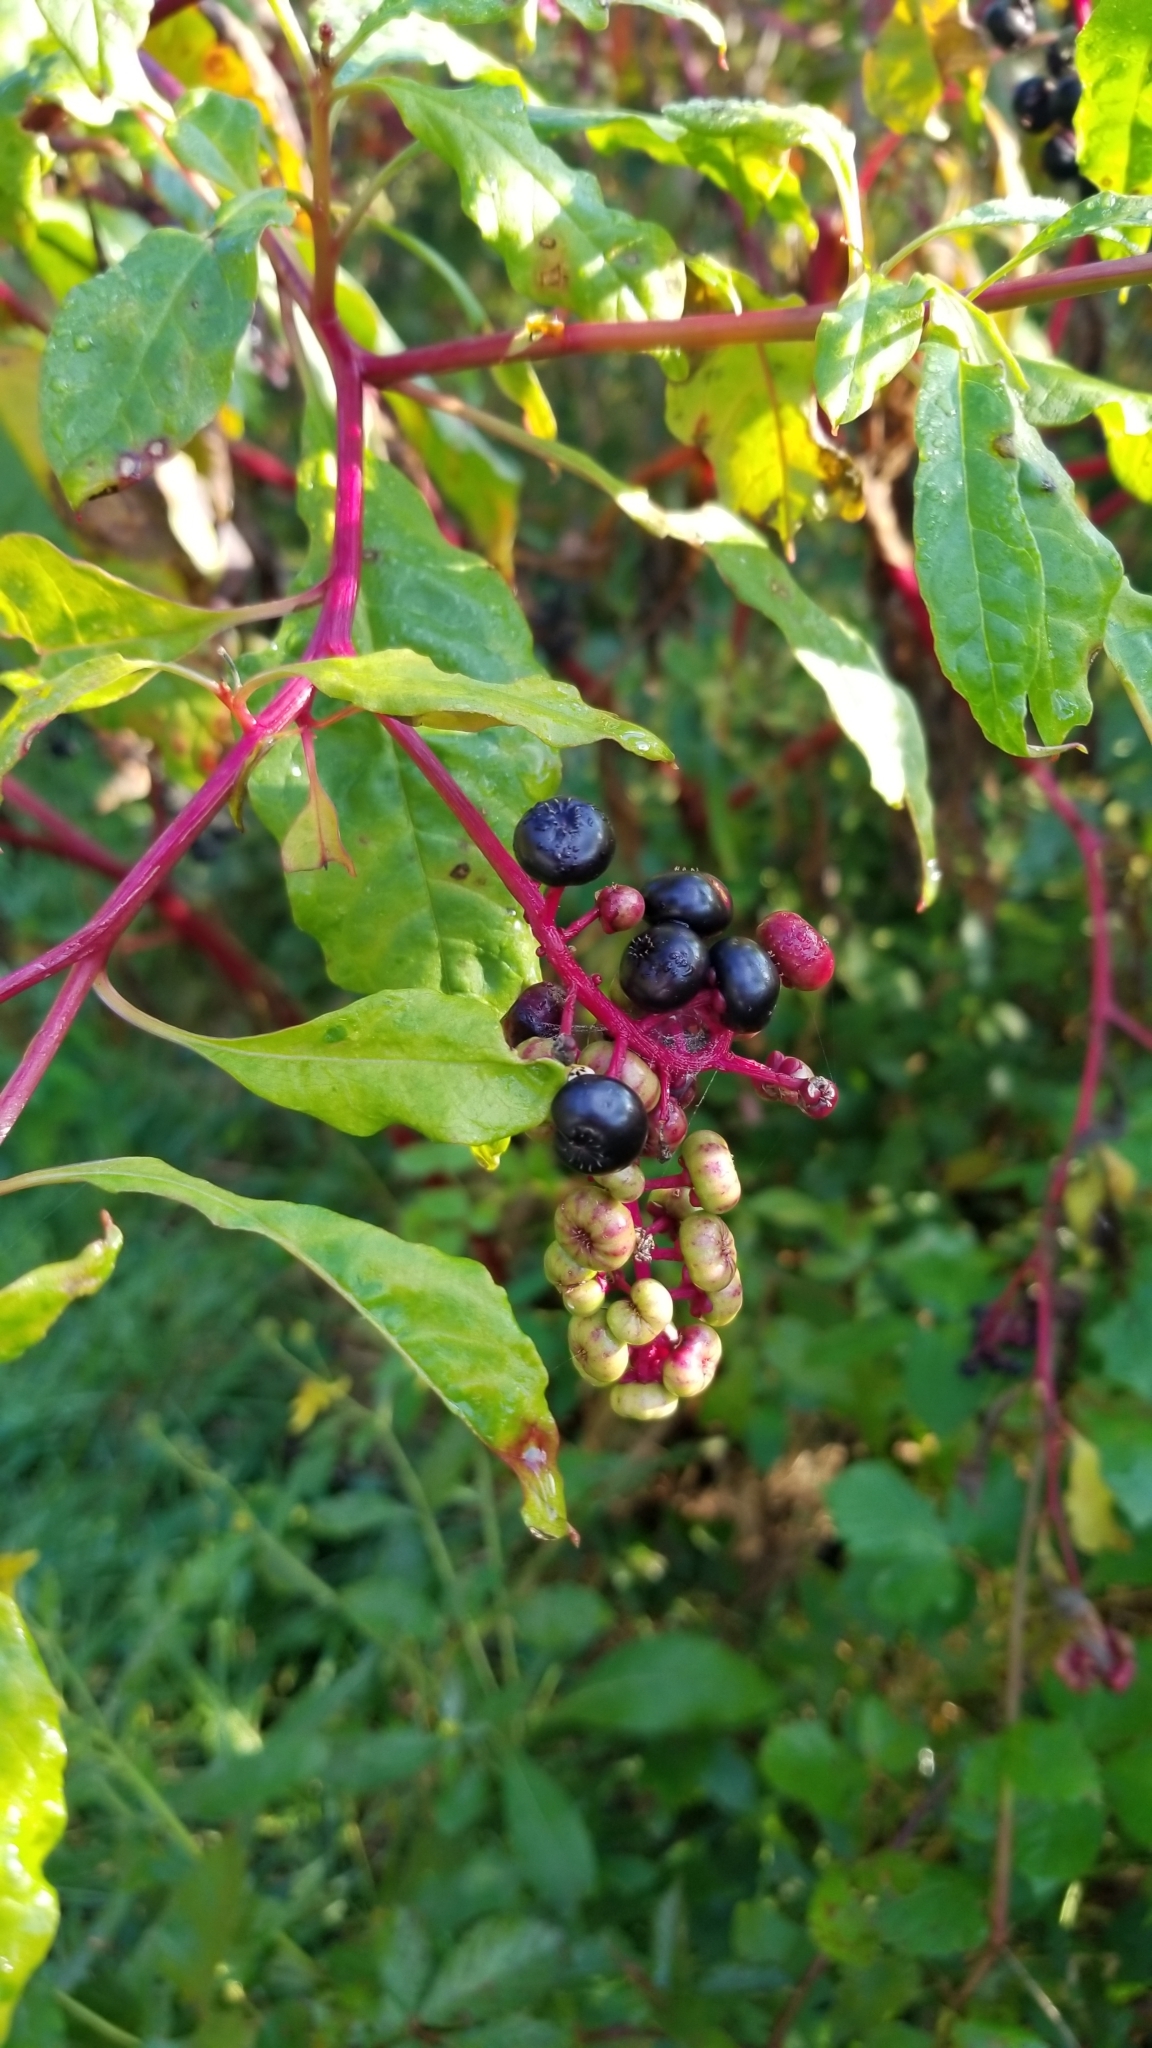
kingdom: Plantae
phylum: Tracheophyta
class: Magnoliopsida
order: Caryophyllales
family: Phytolaccaceae
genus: Phytolacca
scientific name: Phytolacca americana
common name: American pokeweed
